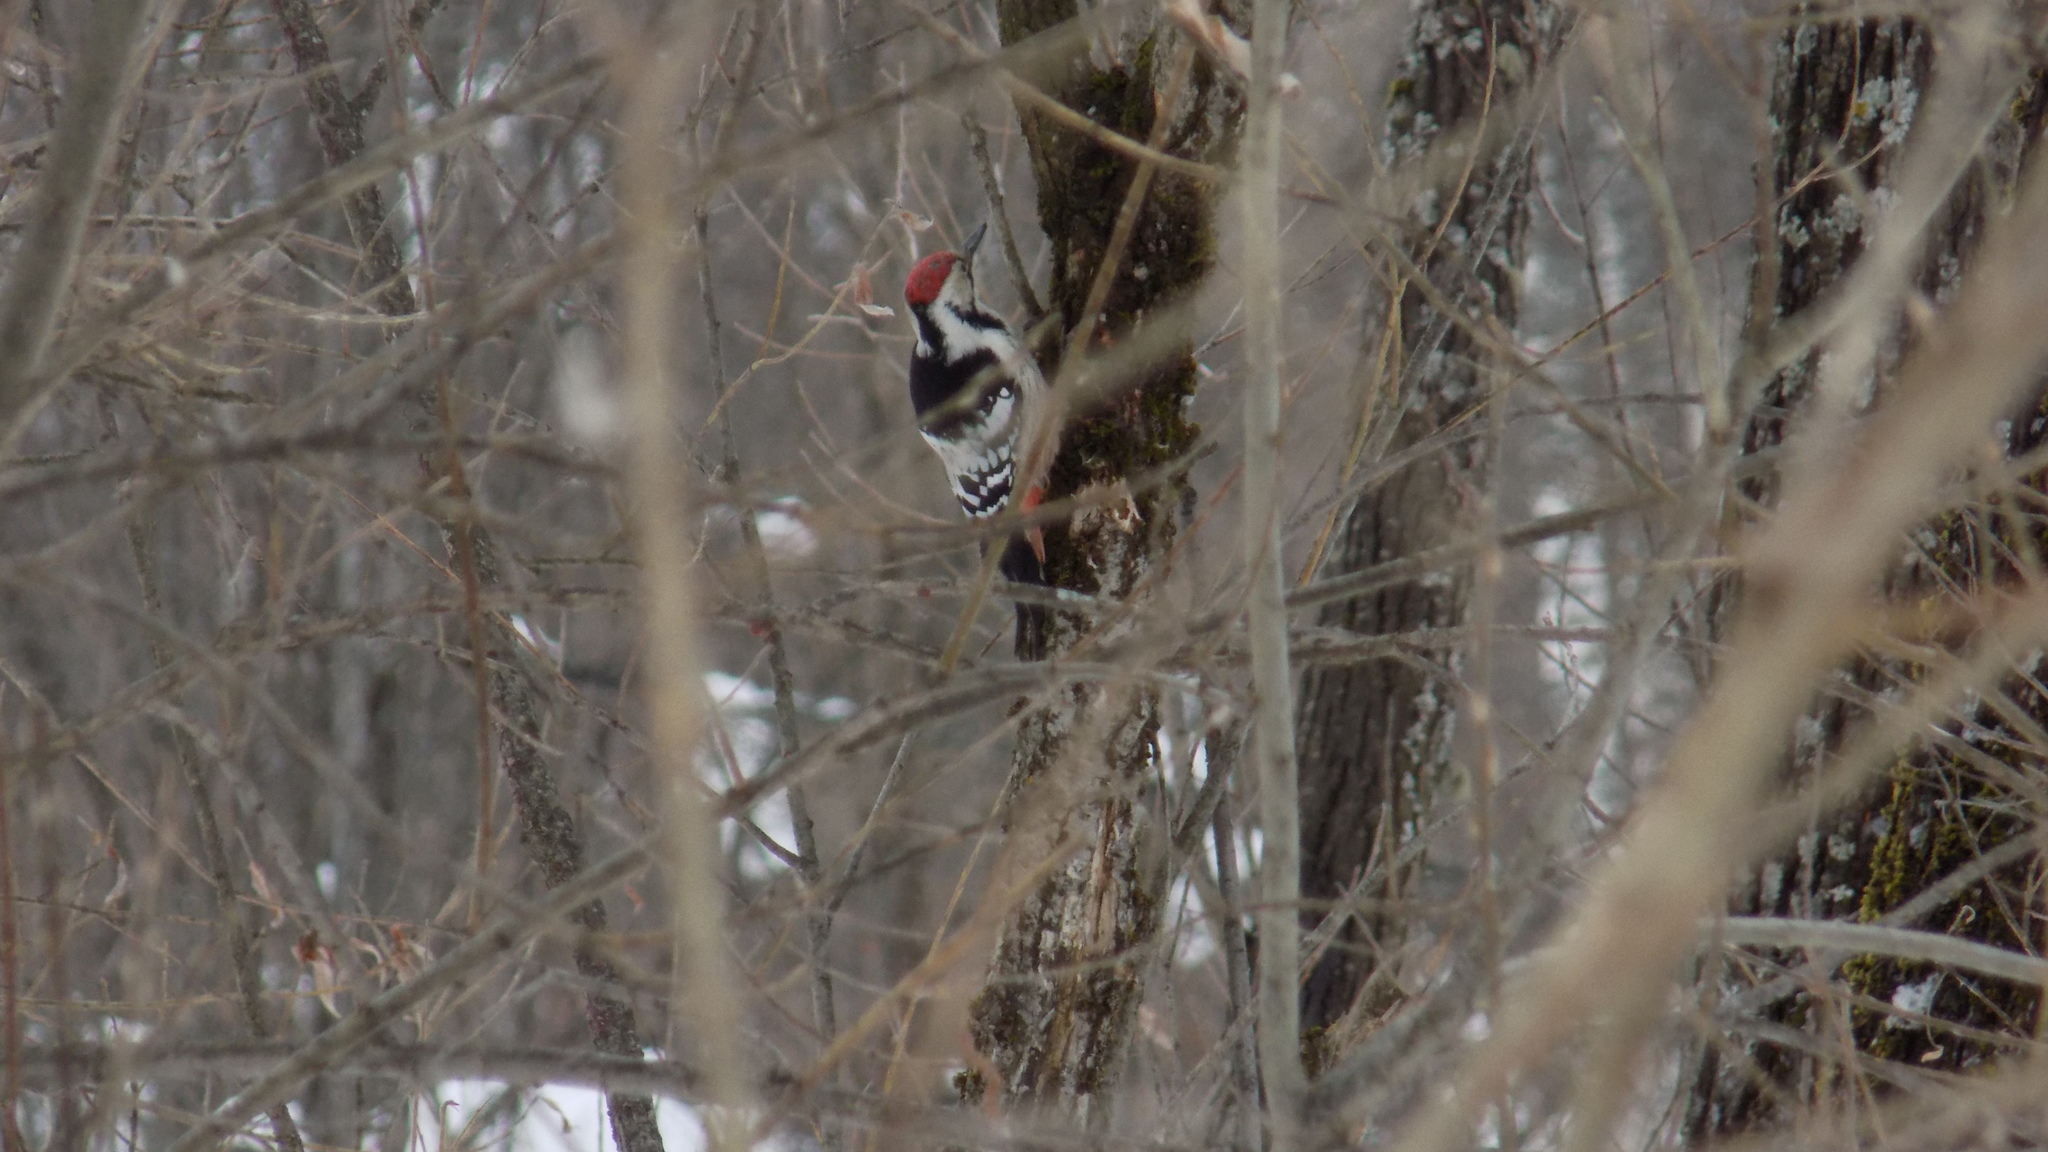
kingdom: Animalia
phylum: Chordata
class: Aves
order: Piciformes
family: Picidae
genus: Dendrocopos
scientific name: Dendrocopos leucotos
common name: White-backed woodpecker
